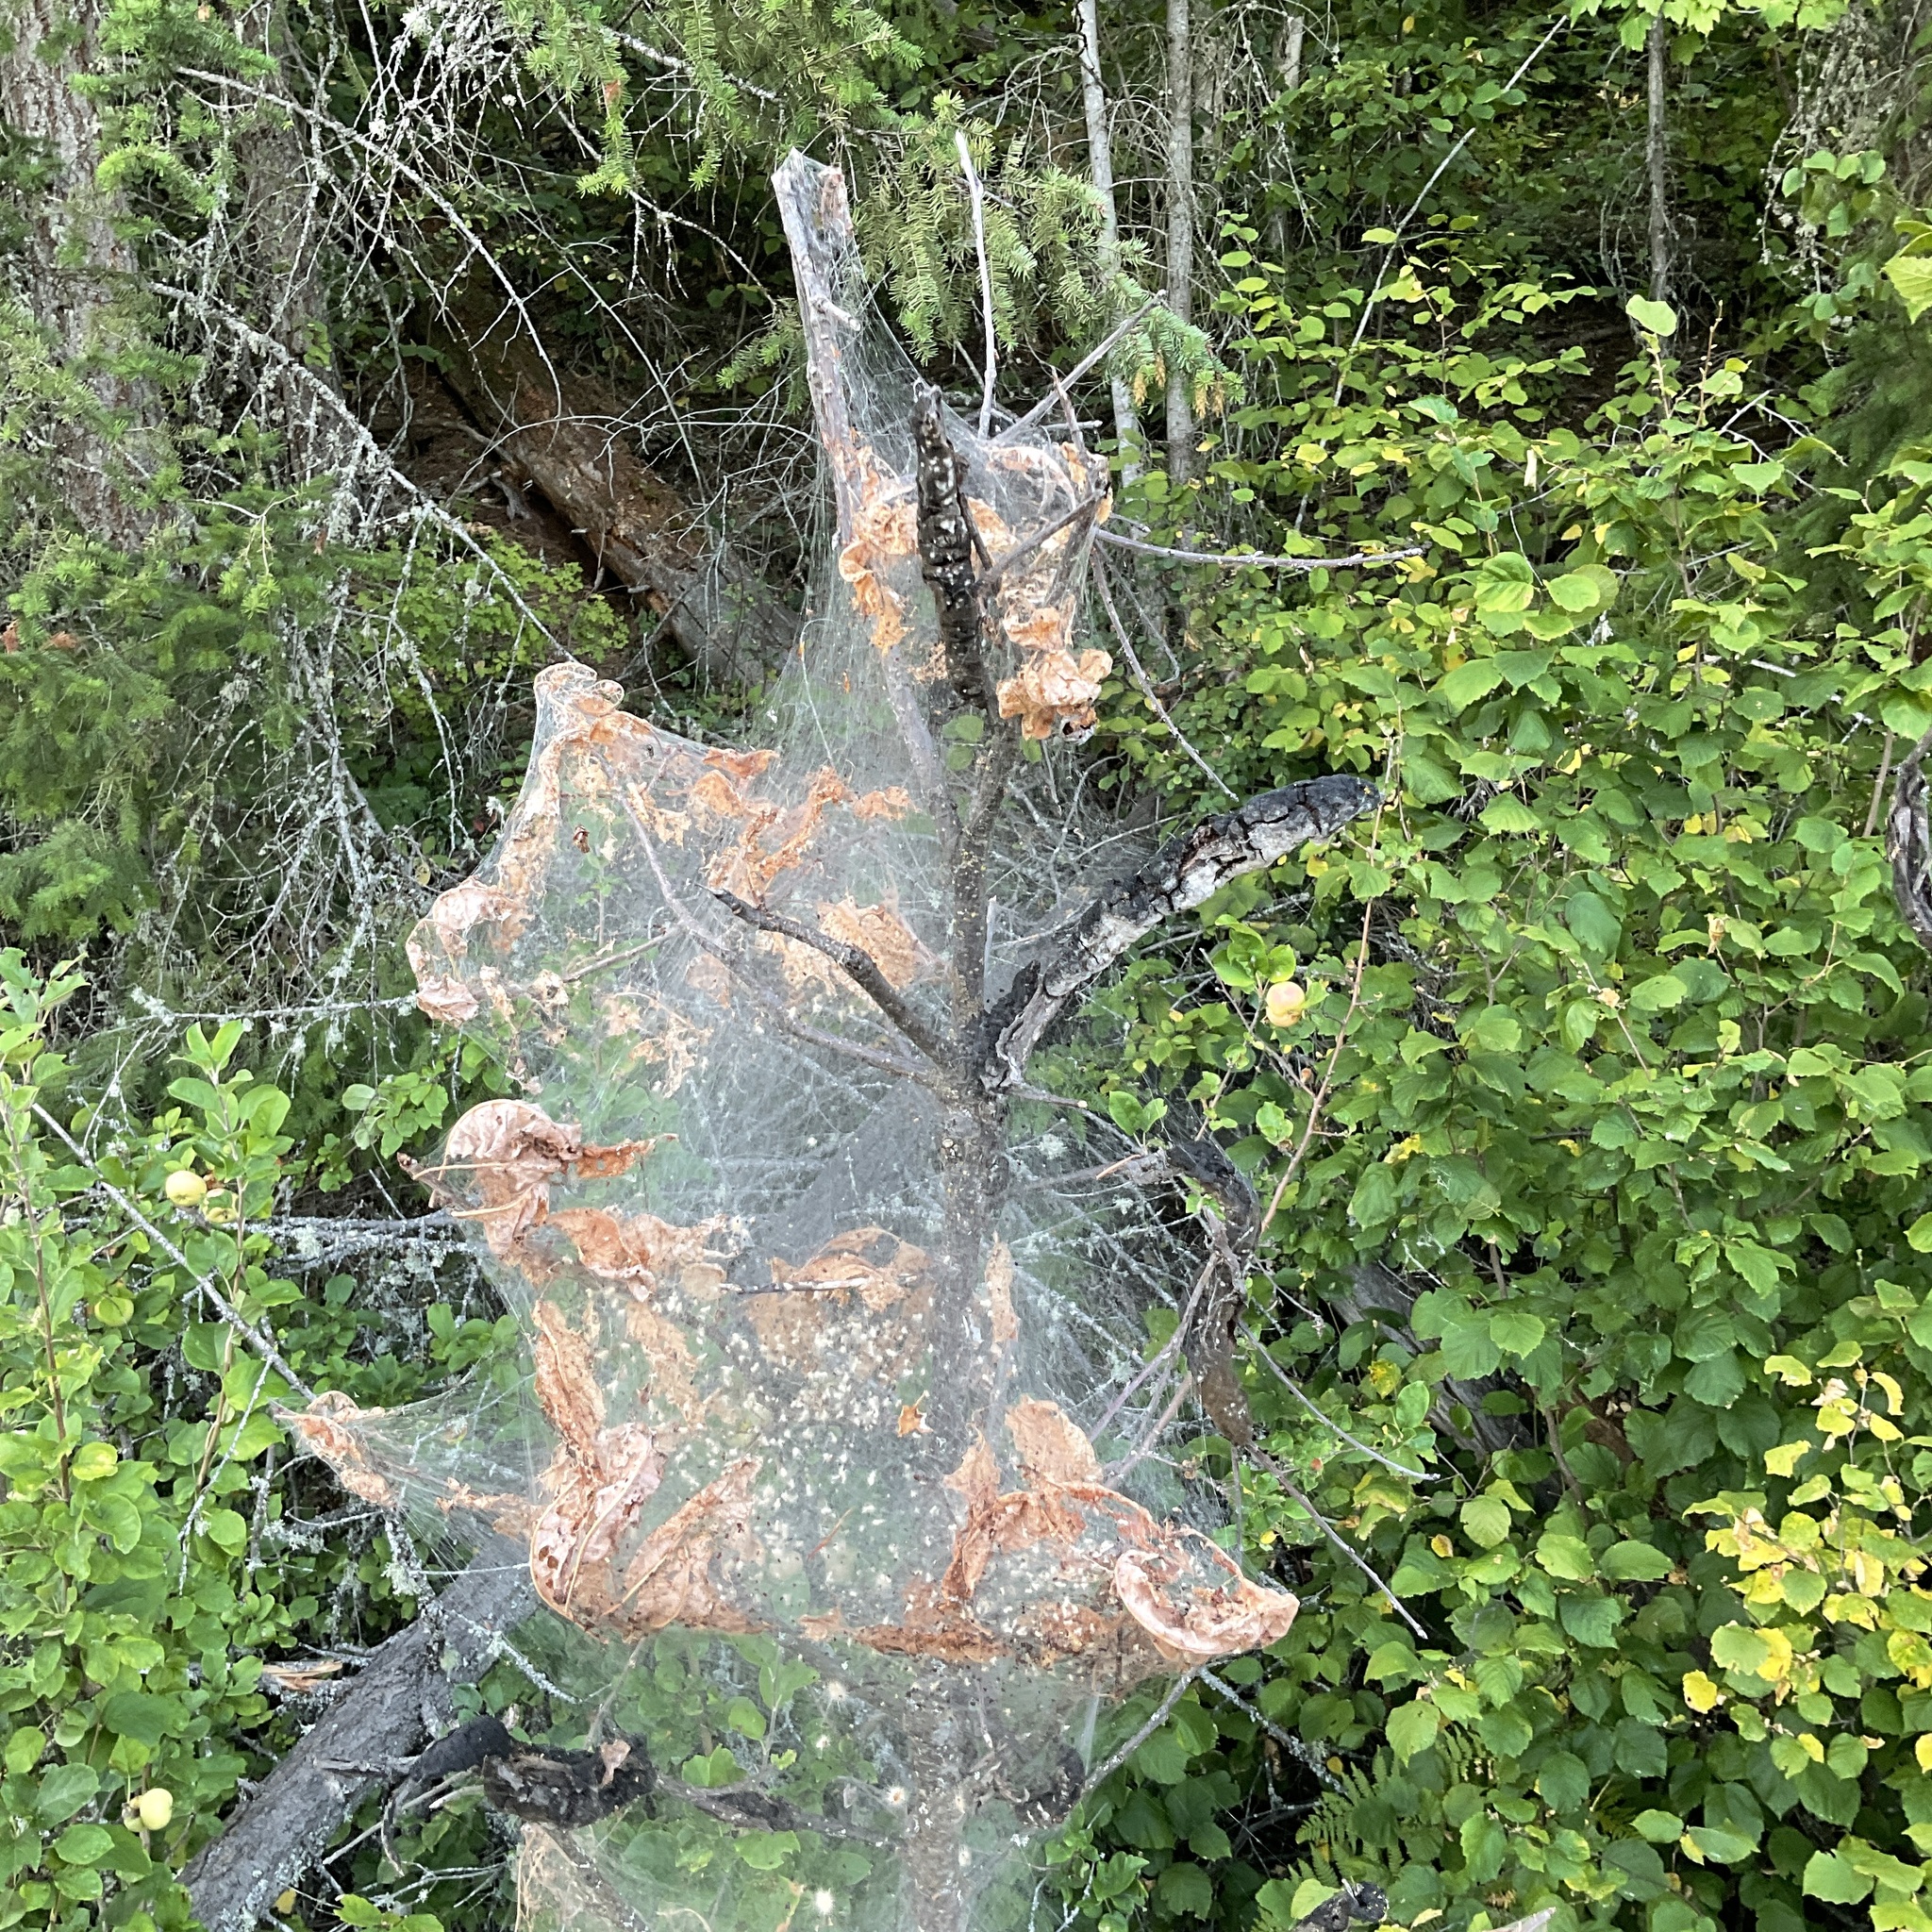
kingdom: Animalia
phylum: Arthropoda
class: Insecta
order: Lepidoptera
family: Erebidae
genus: Hyphantria
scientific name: Hyphantria cunea
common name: American white moth
